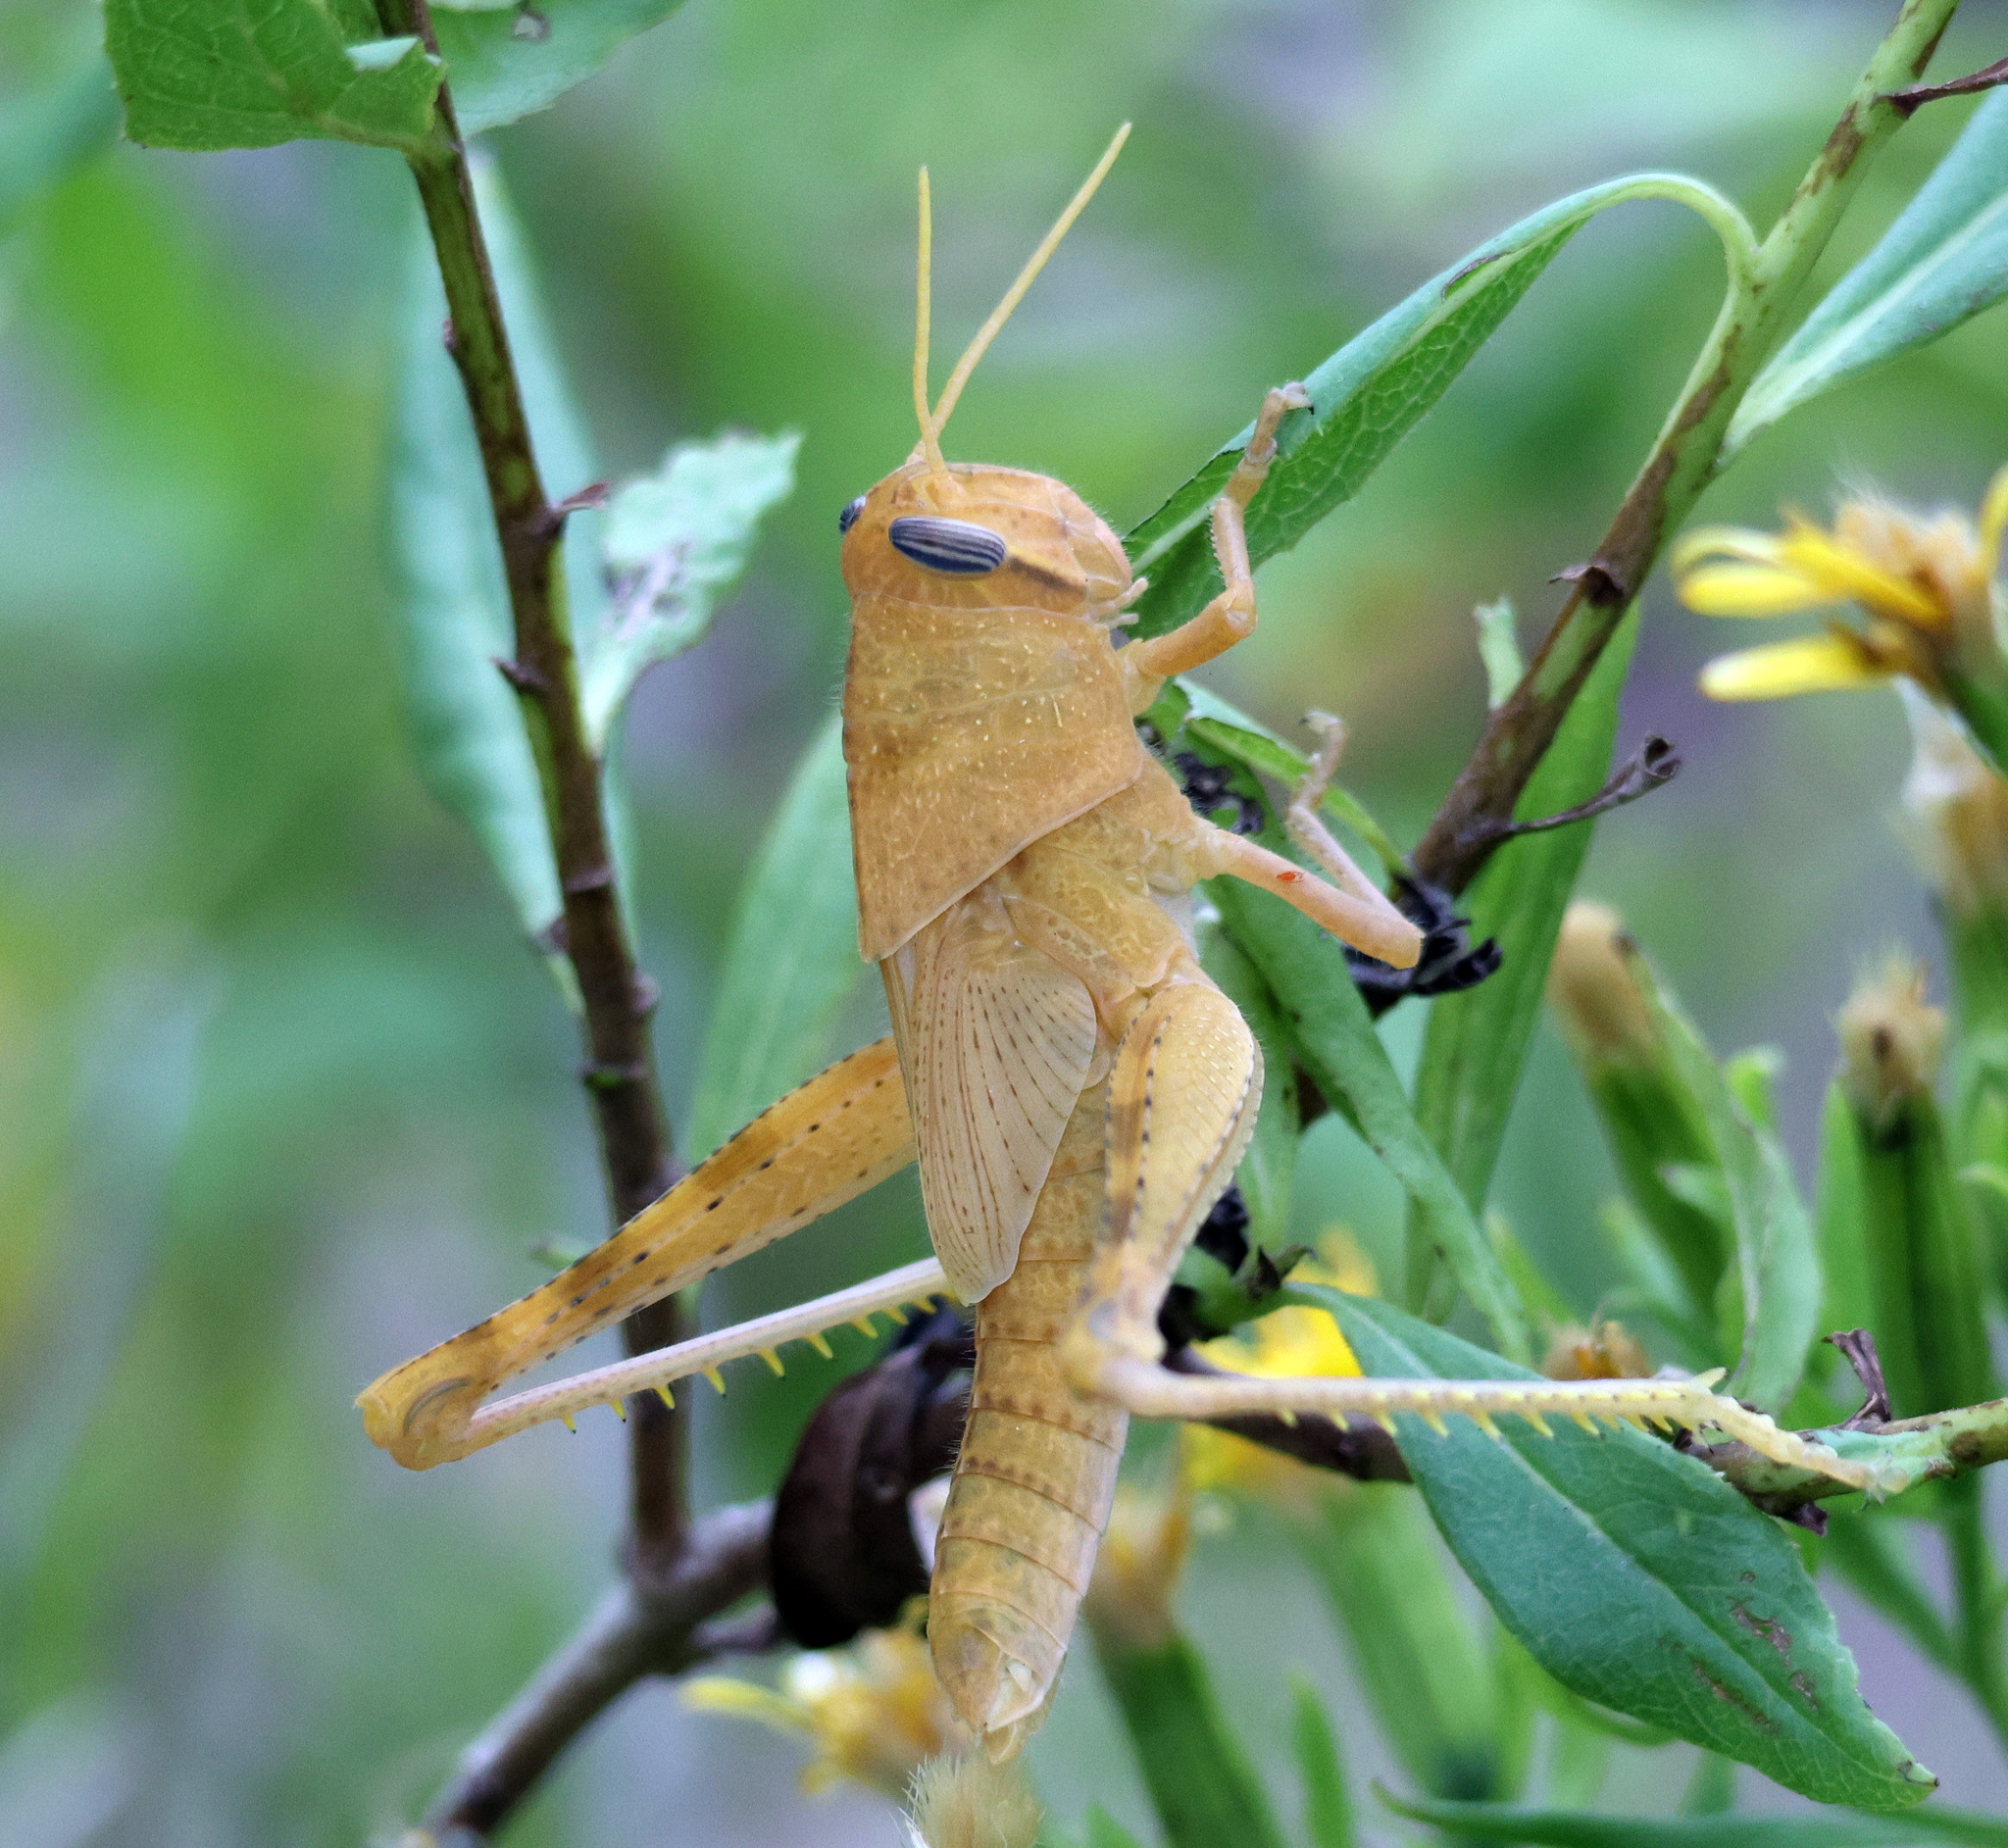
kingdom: Animalia
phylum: Arthropoda
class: Insecta
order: Orthoptera
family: Acrididae
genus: Schistocerca
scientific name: Schistocerca nitens
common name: Vagrant grasshopper
